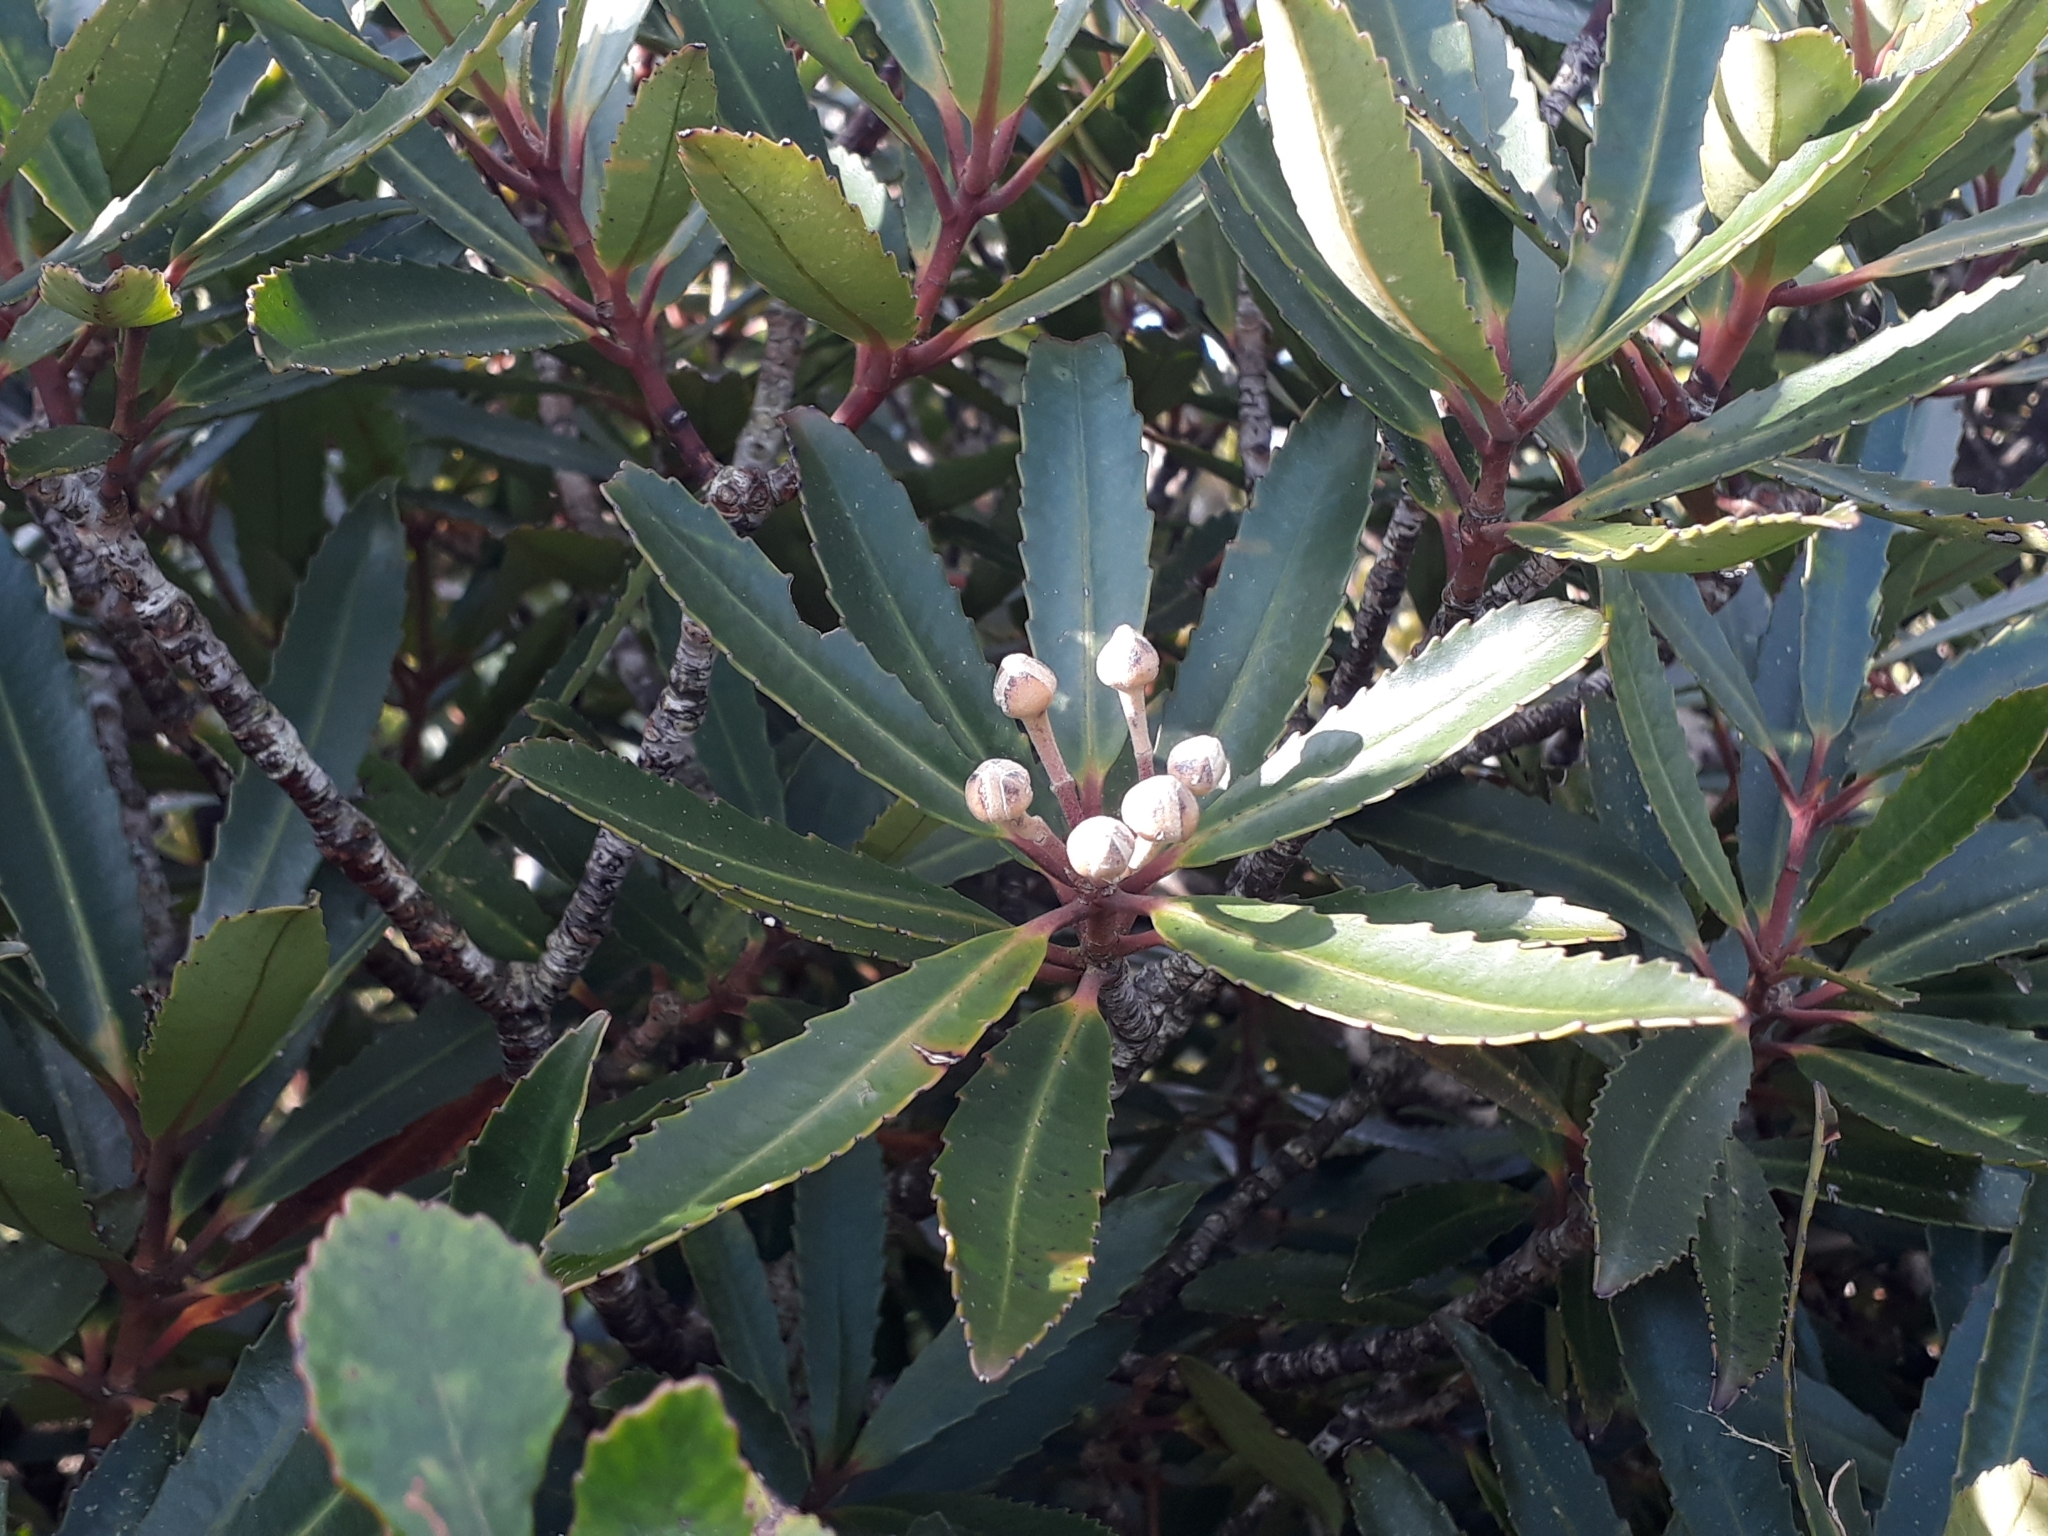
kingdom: Plantae
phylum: Tracheophyta
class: Magnoliopsida
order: Crossosomatales
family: Ixerbaceae
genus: Ixerba
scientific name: Ixerba brexioides
